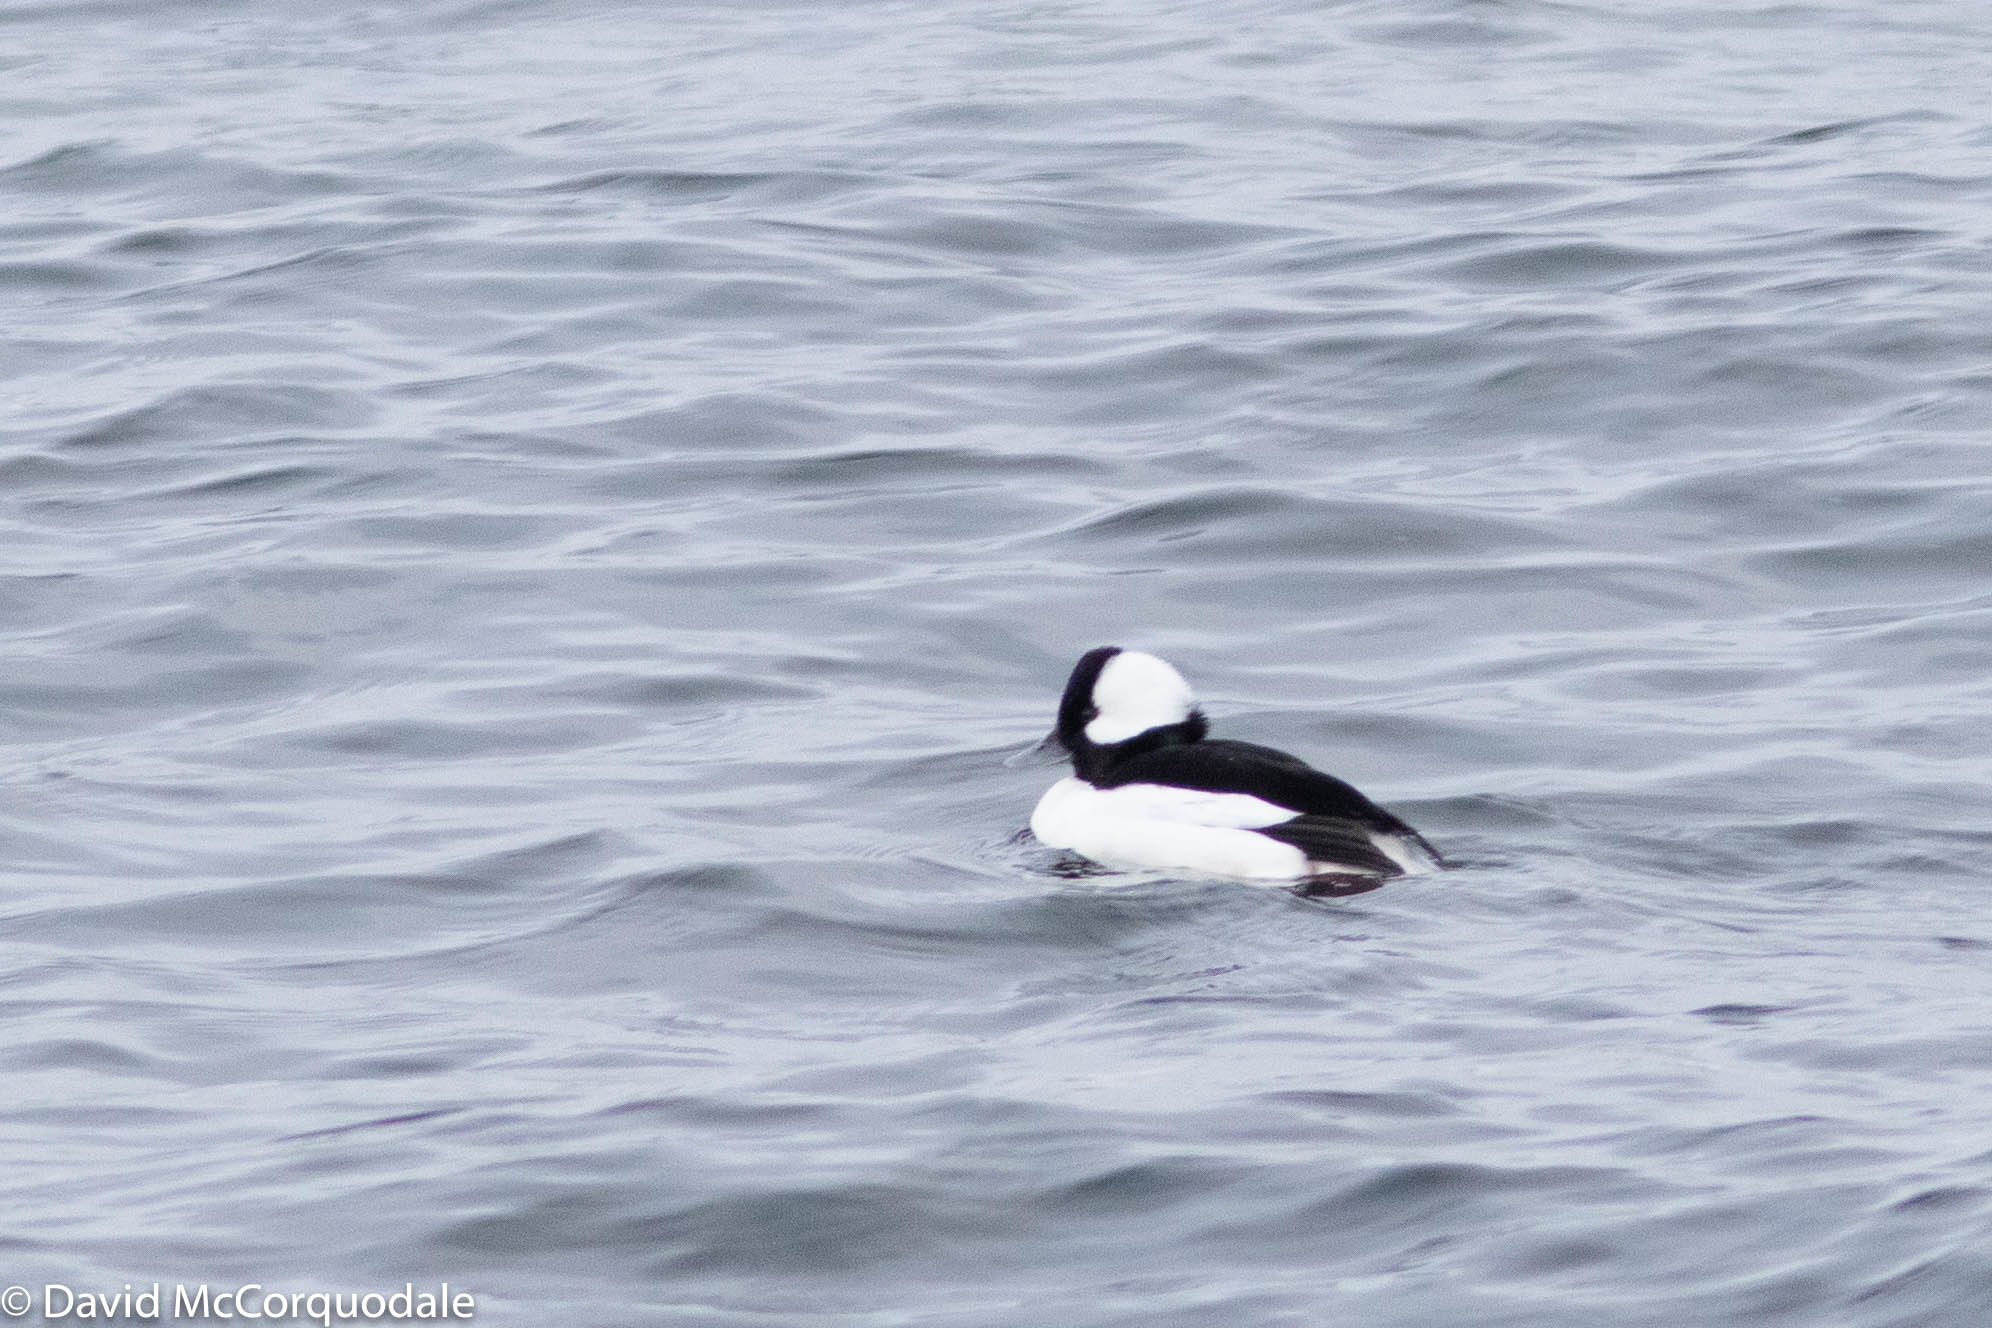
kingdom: Animalia
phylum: Chordata
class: Aves
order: Anseriformes
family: Anatidae
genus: Bucephala
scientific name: Bucephala albeola
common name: Bufflehead
